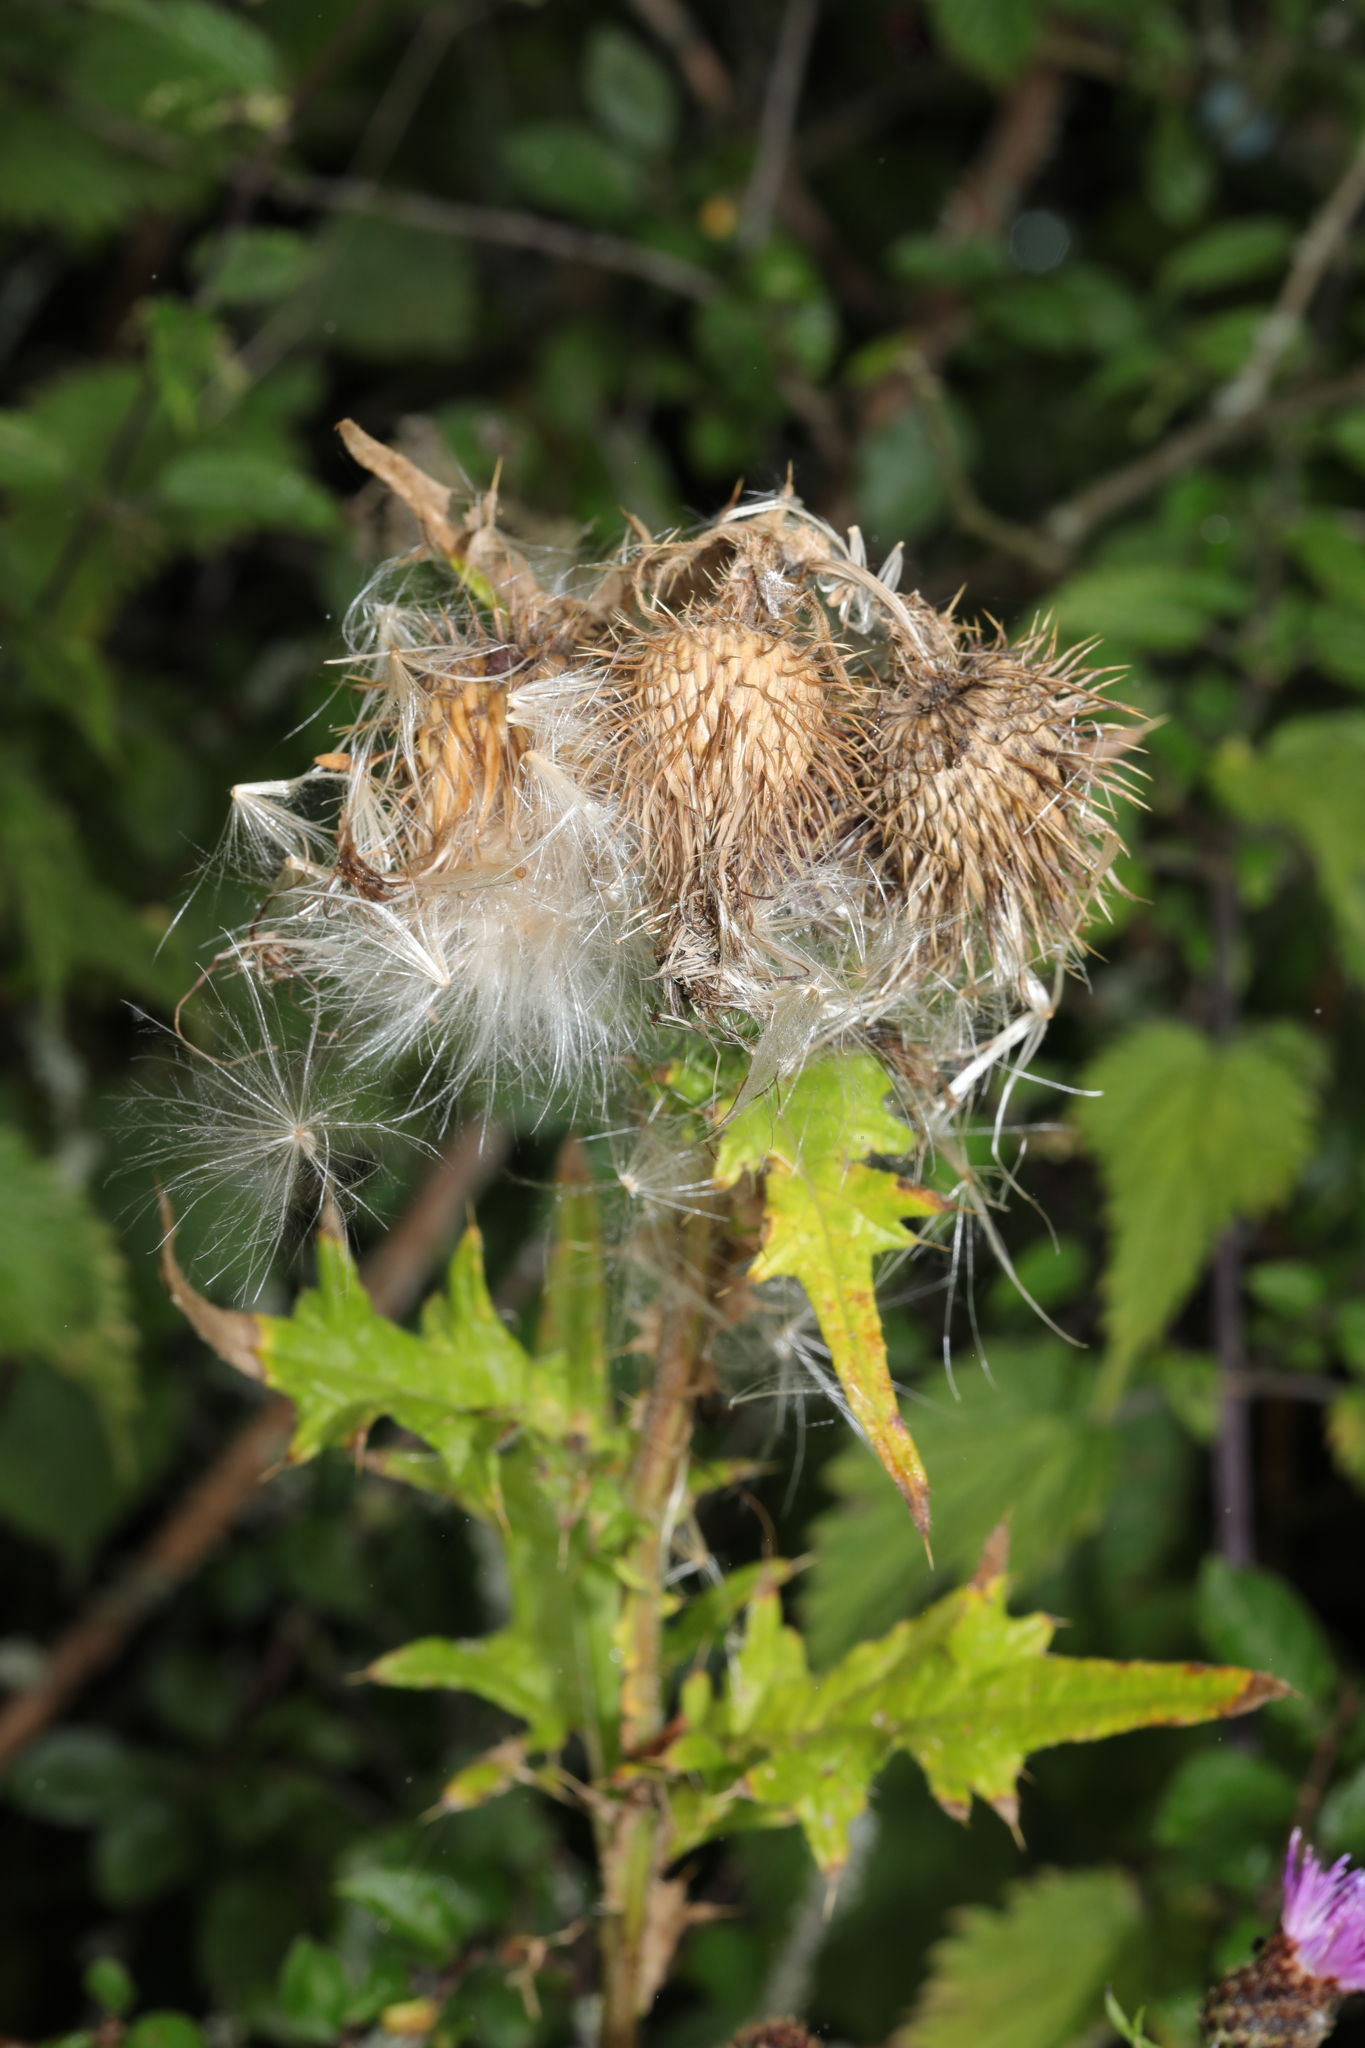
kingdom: Plantae
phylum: Tracheophyta
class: Magnoliopsida
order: Asterales
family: Asteraceae
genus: Cirsium
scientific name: Cirsium vulgare
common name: Bull thistle
